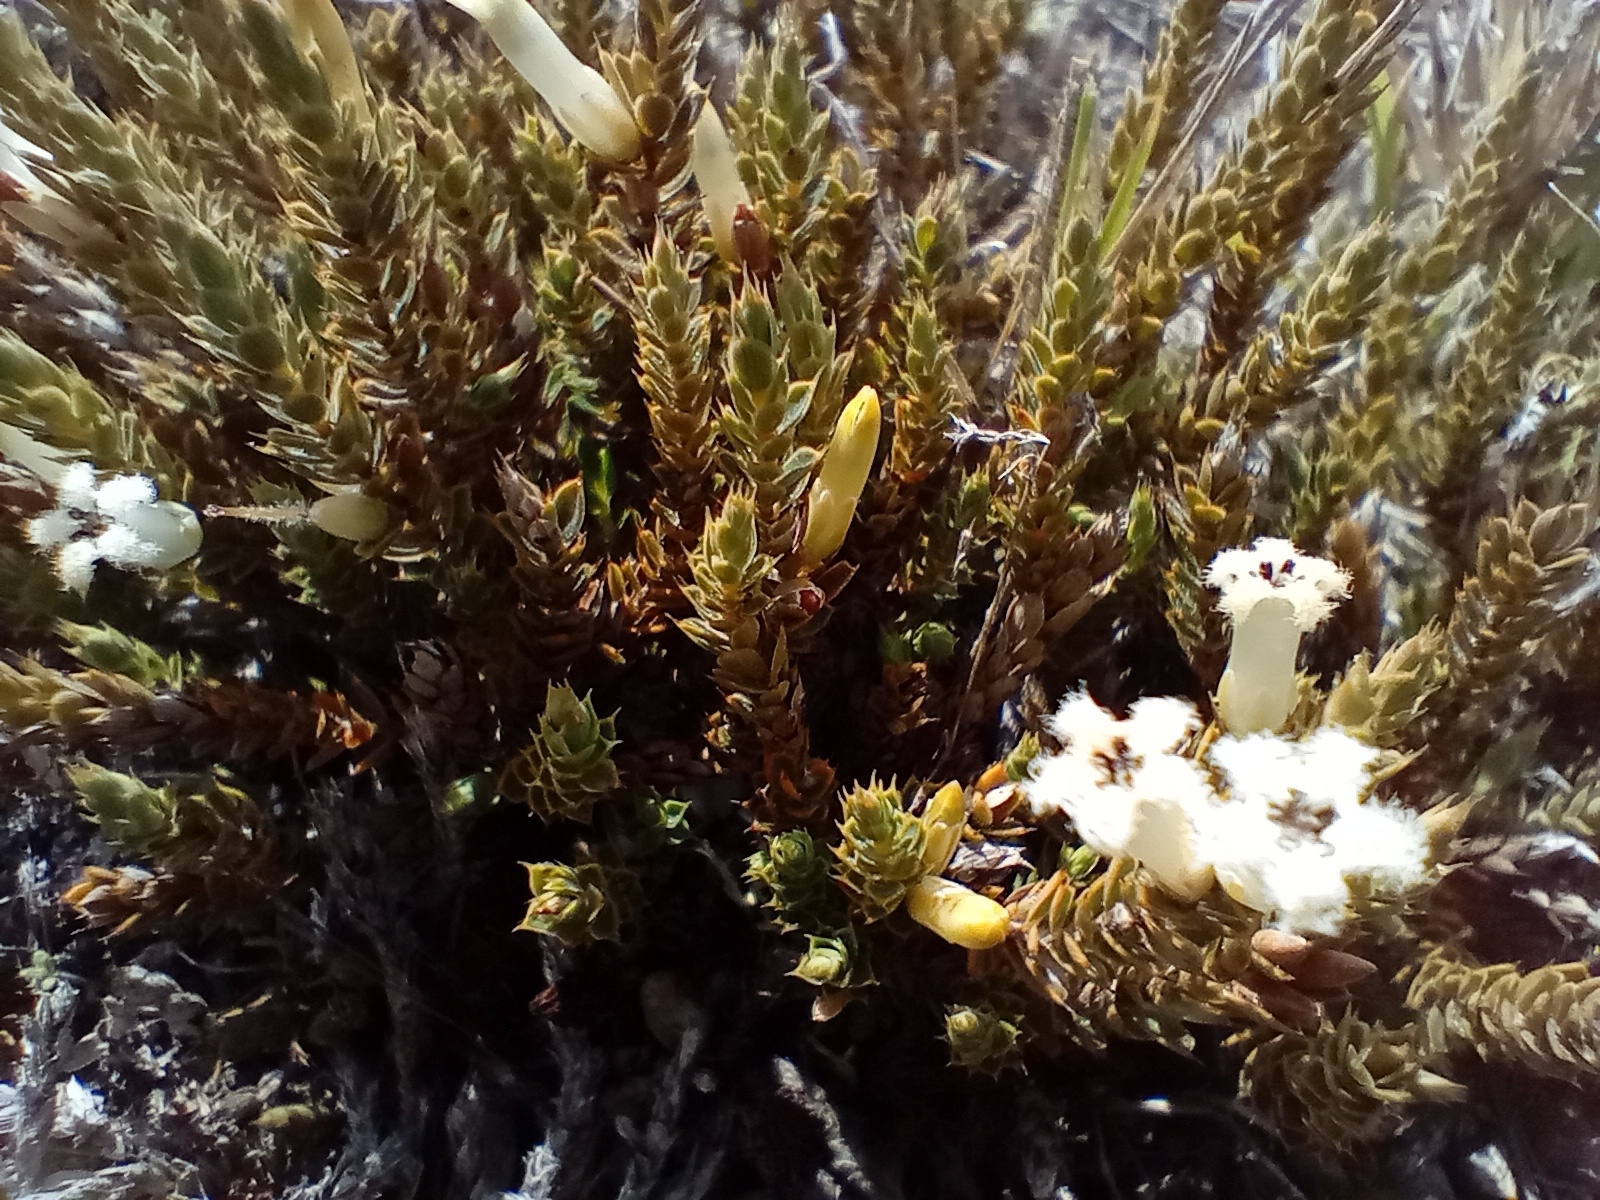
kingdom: Plantae
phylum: Tracheophyta
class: Magnoliopsida
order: Ericales
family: Ericaceae
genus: Styphelia
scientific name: Styphelia nana
